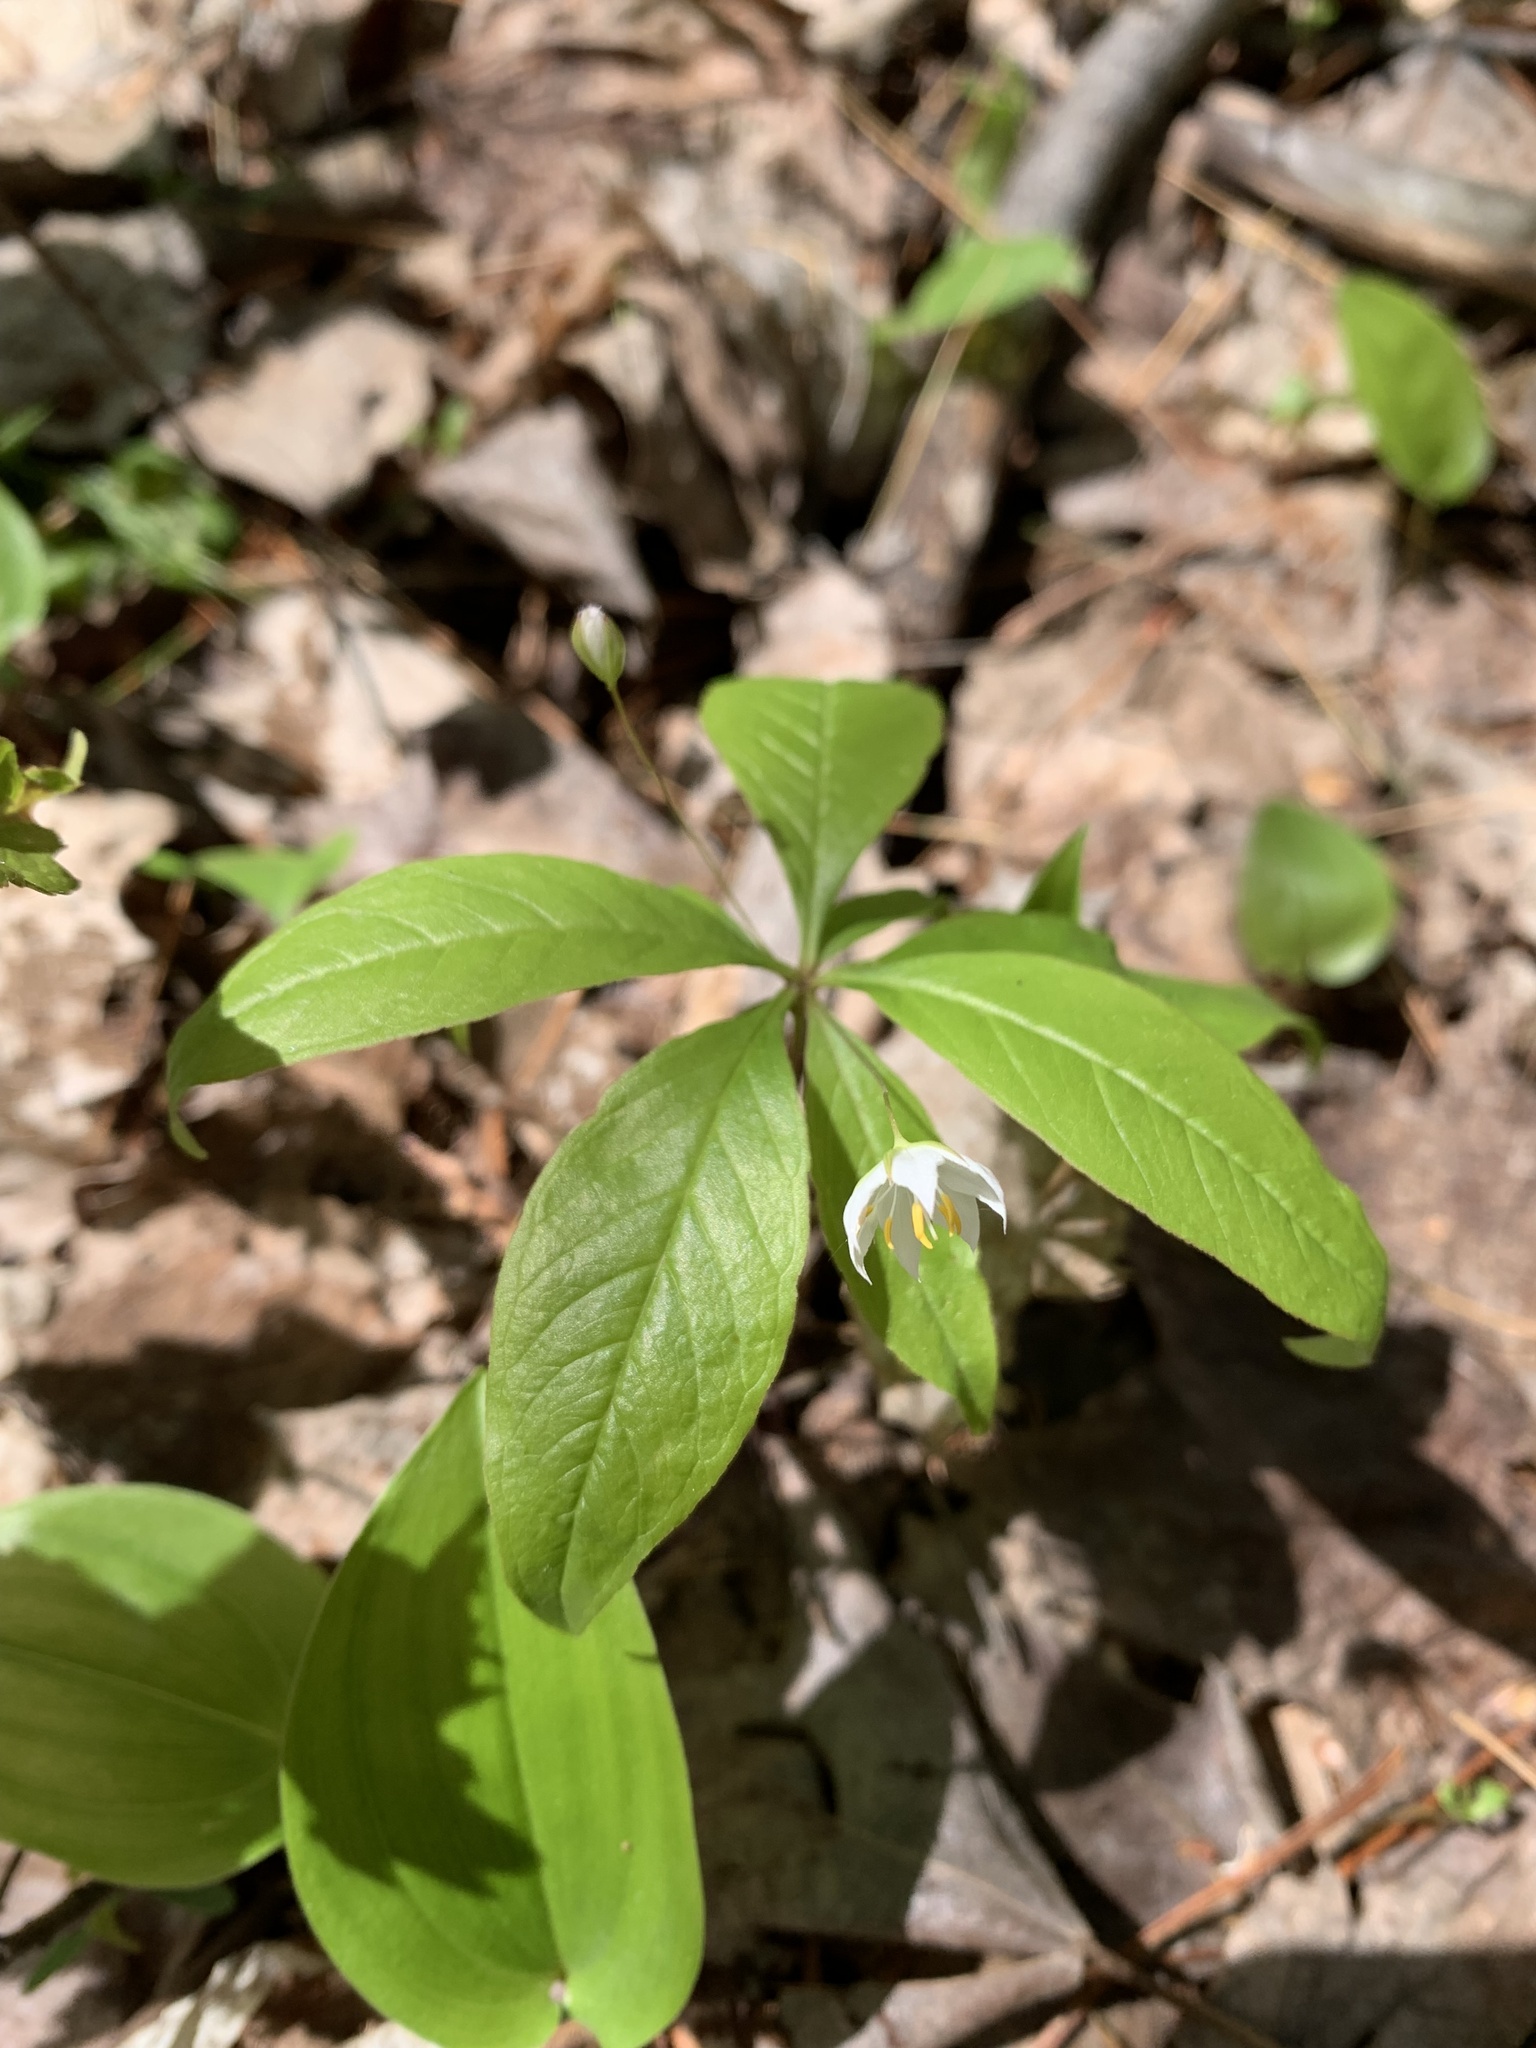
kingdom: Plantae
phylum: Tracheophyta
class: Magnoliopsida
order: Ericales
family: Primulaceae
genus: Lysimachia
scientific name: Lysimachia borealis
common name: American starflower
